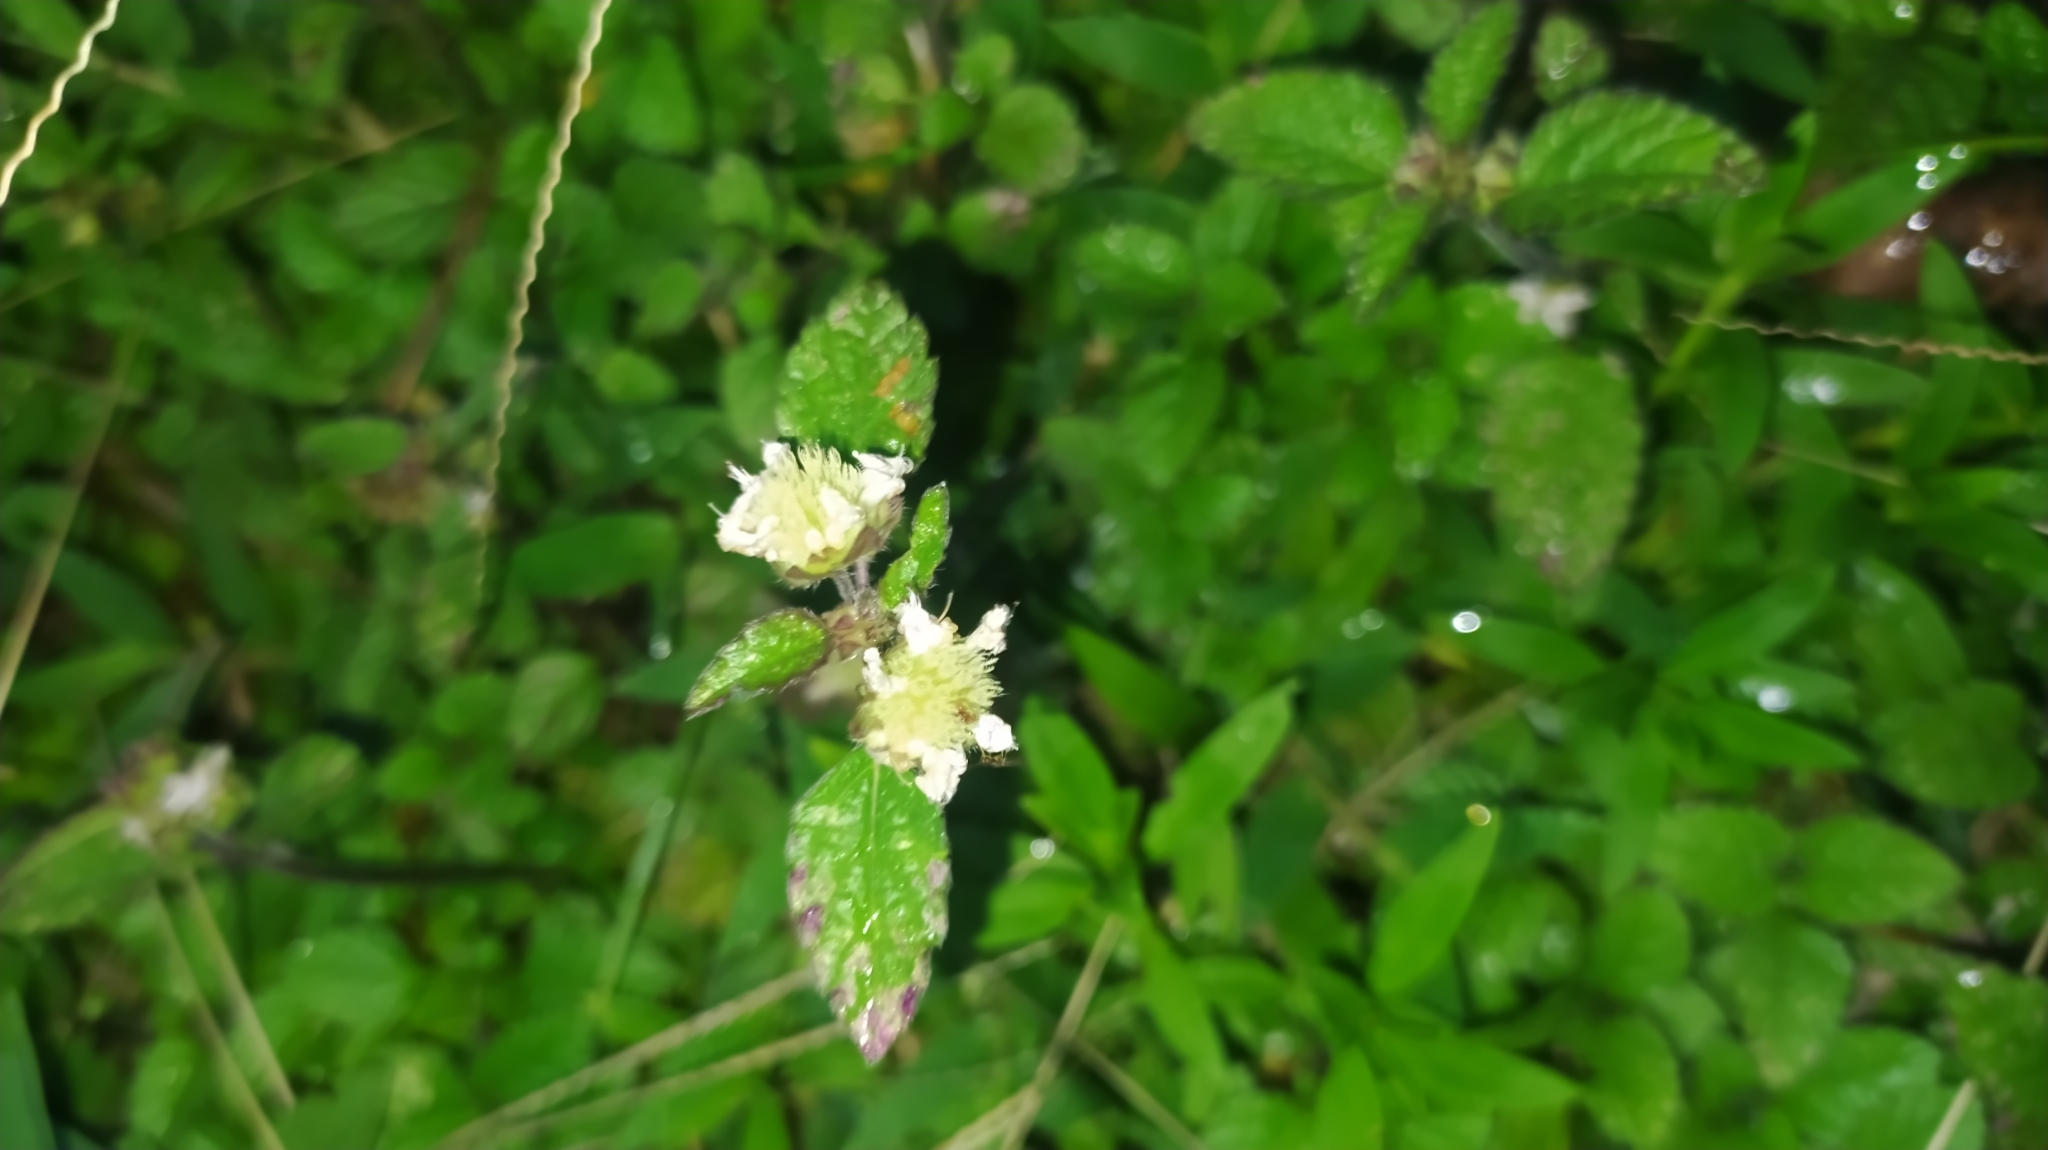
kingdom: Plantae
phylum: Tracheophyta
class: Magnoliopsida
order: Lamiales
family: Lamiaceae
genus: Hyptis
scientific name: Hyptis atrorubens
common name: Lanmant
